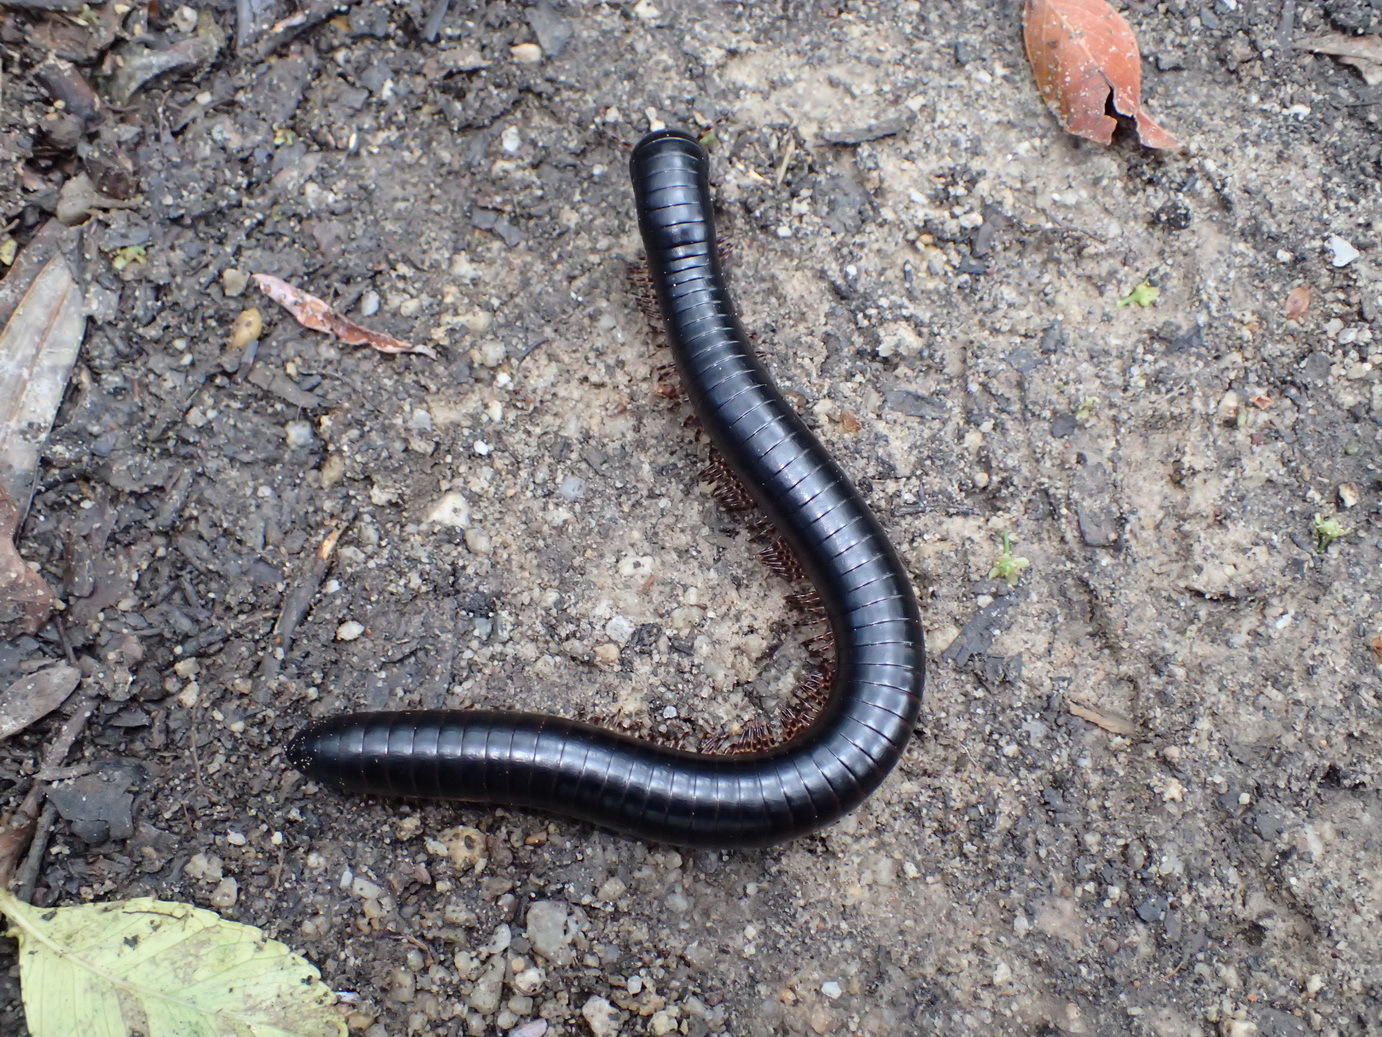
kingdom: Animalia
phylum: Arthropoda
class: Diplopoda
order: Spirostreptida
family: Spirostreptidae
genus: Doratogonus
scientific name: Doratogonus annulipes
